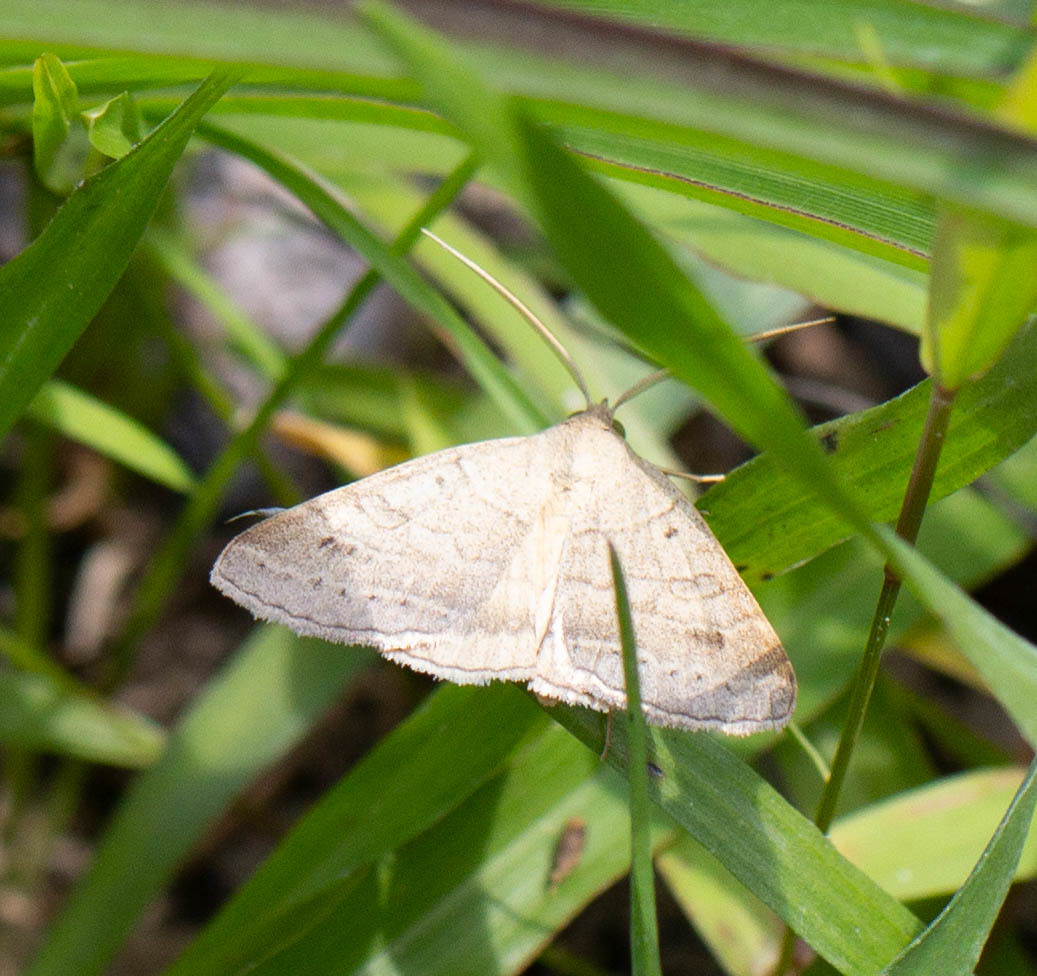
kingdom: Animalia
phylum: Arthropoda
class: Insecta
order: Lepidoptera
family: Erebidae
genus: Caenurgia
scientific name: Caenurgia chloropha
